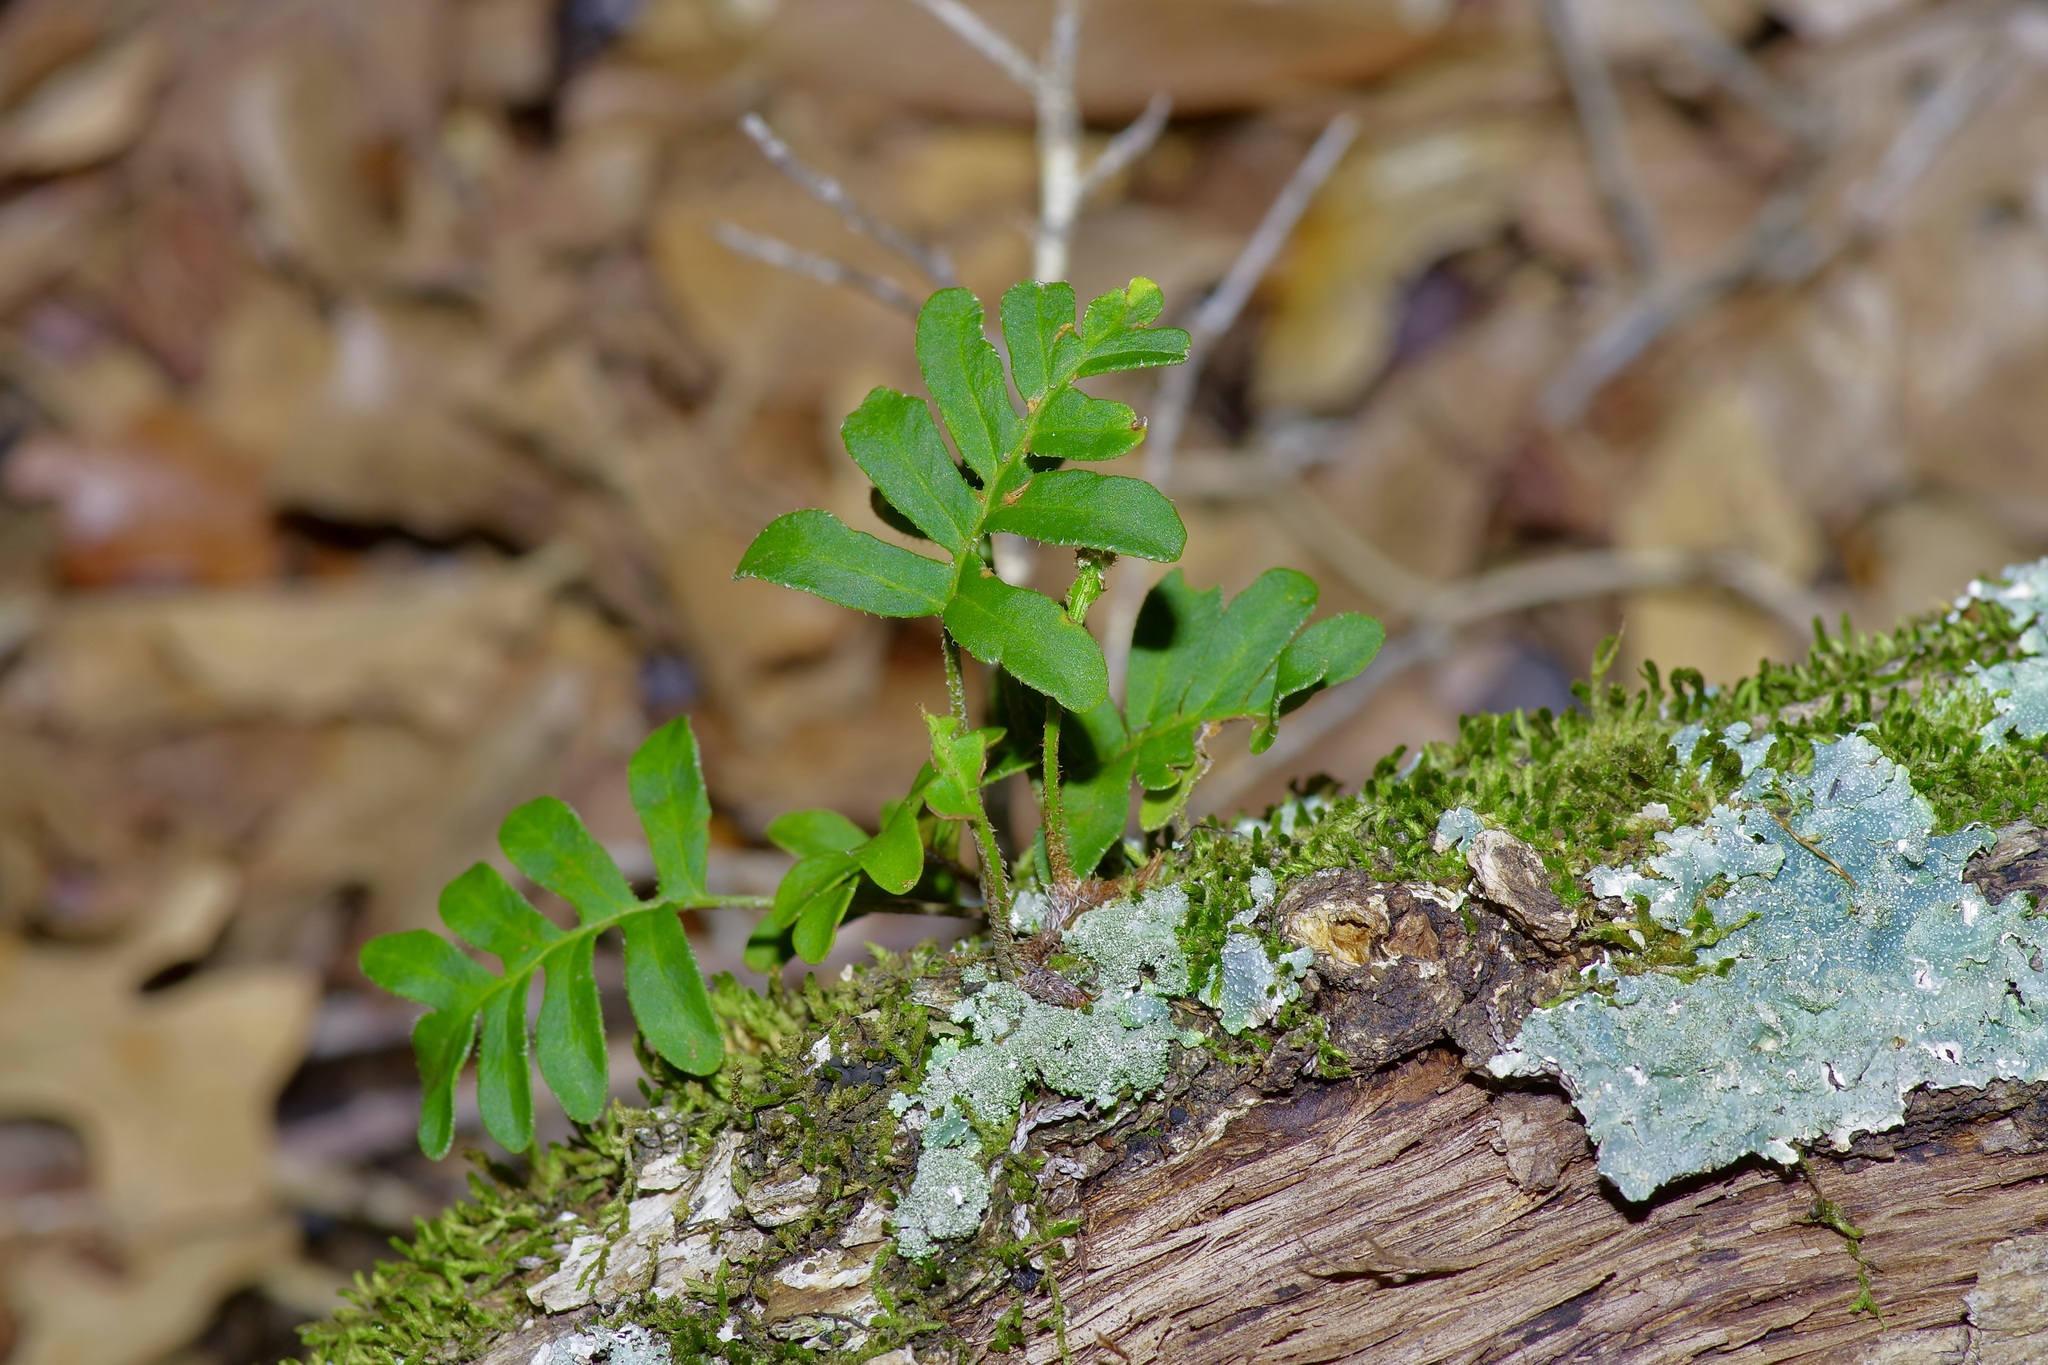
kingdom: Plantae
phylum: Tracheophyta
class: Polypodiopsida
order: Polypodiales
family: Polypodiaceae
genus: Pleopeltis
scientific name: Pleopeltis michauxiana
